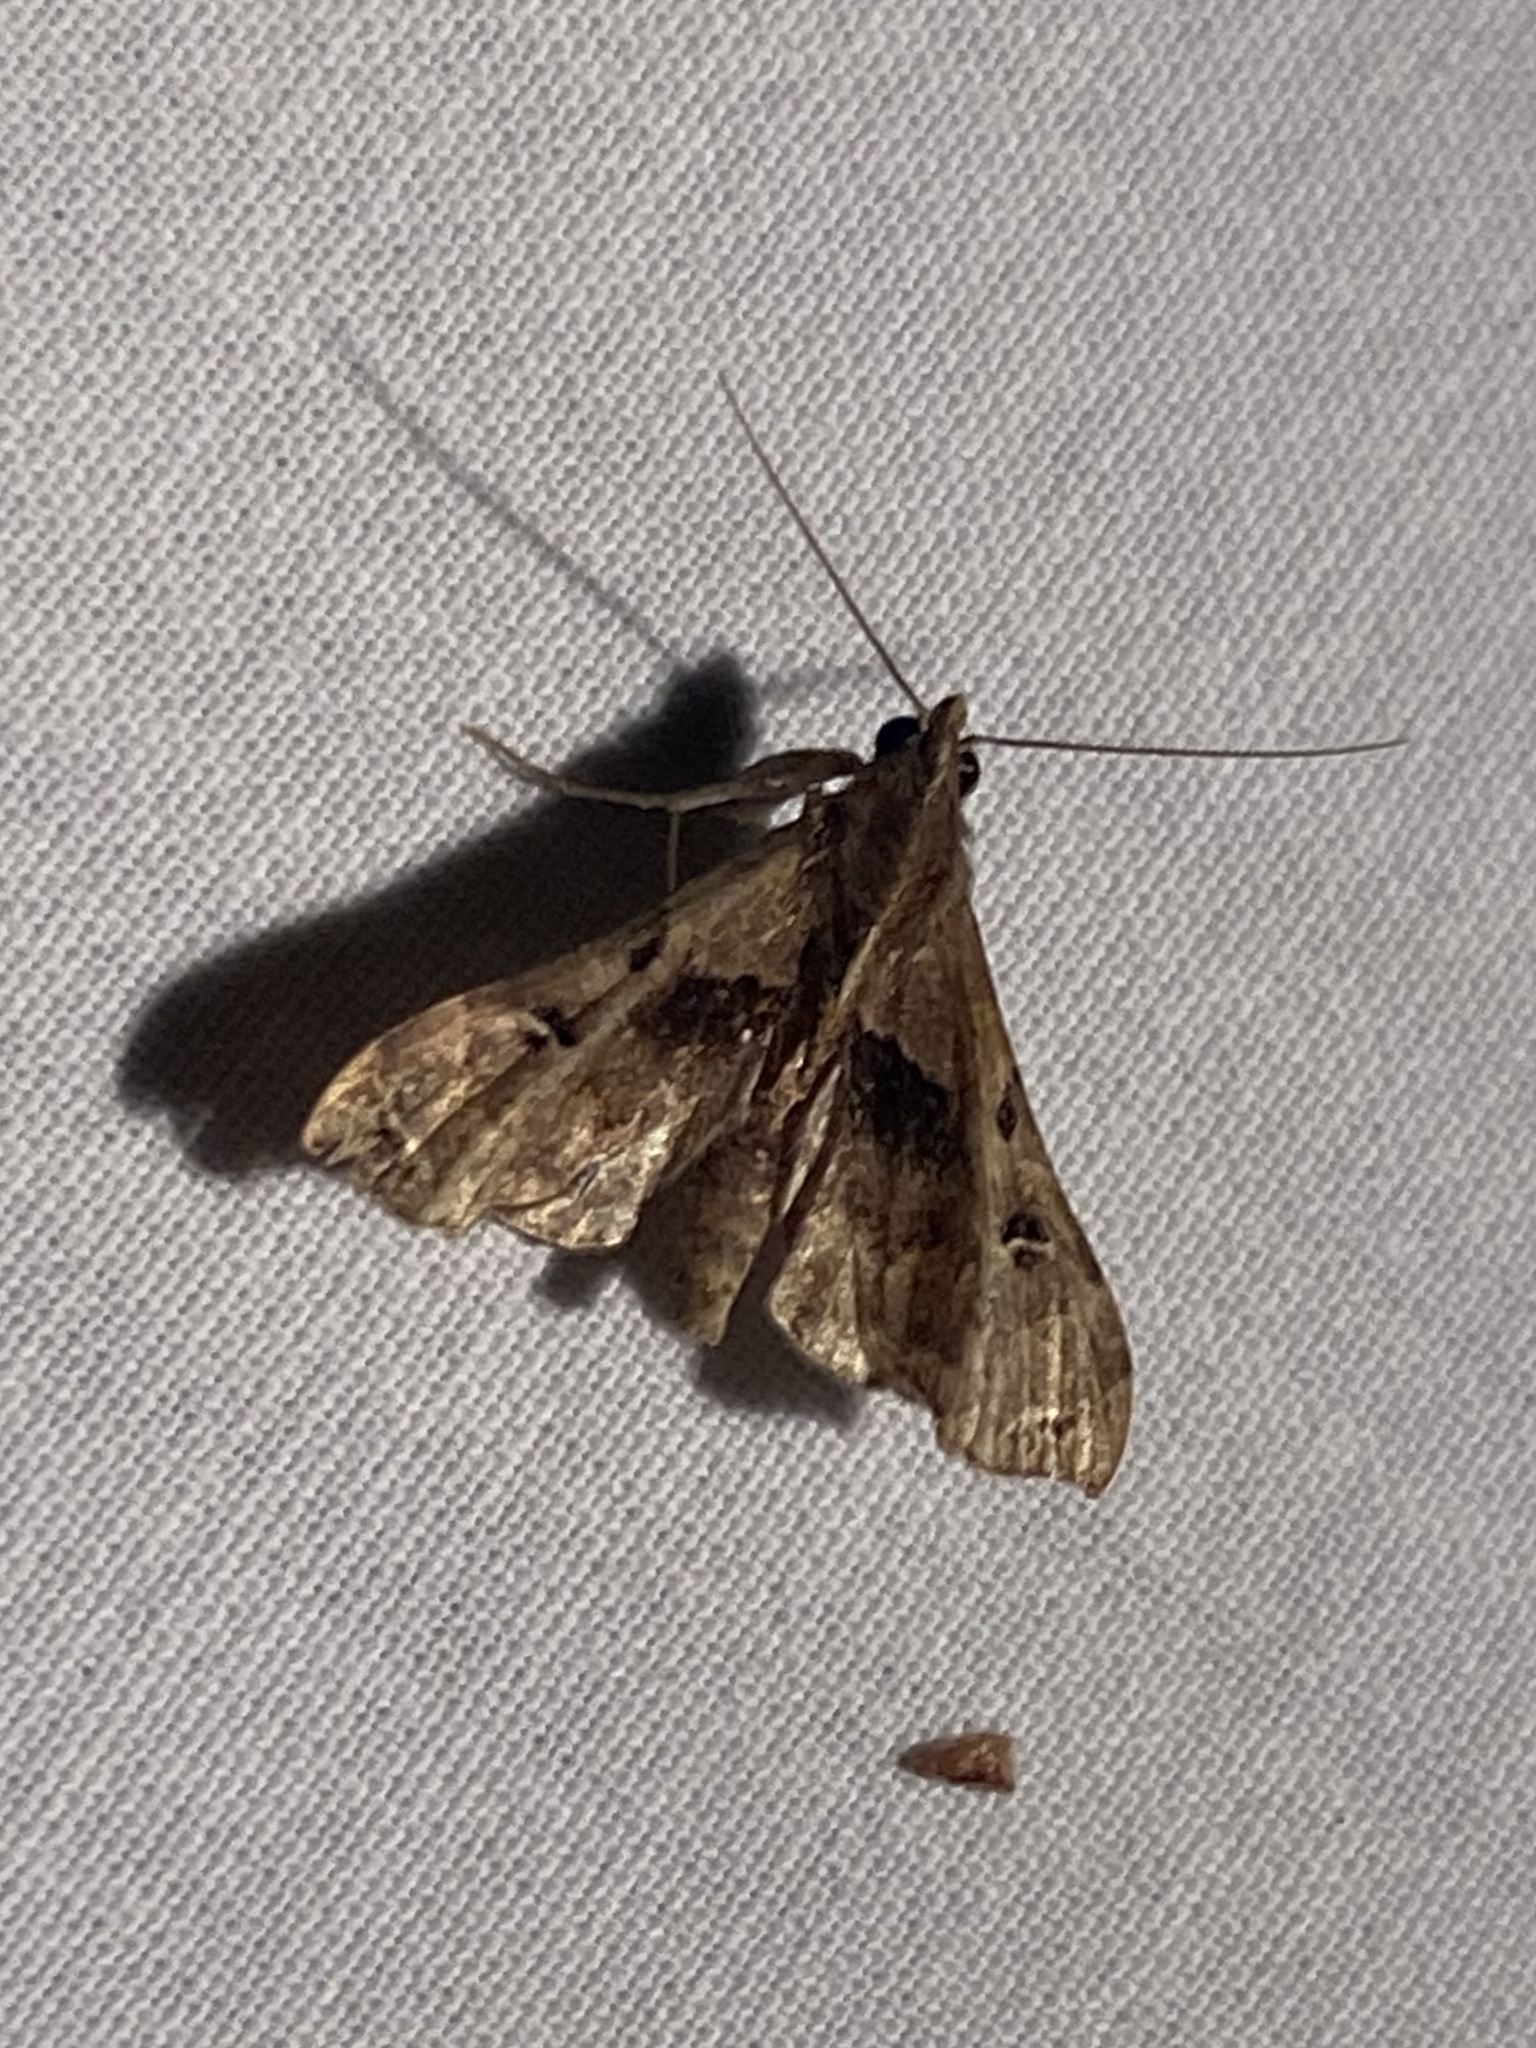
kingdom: Animalia
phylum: Arthropoda
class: Insecta
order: Lepidoptera
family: Erebidae
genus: Palthis
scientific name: Palthis asopialis
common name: Faint-spotted palthis moth
